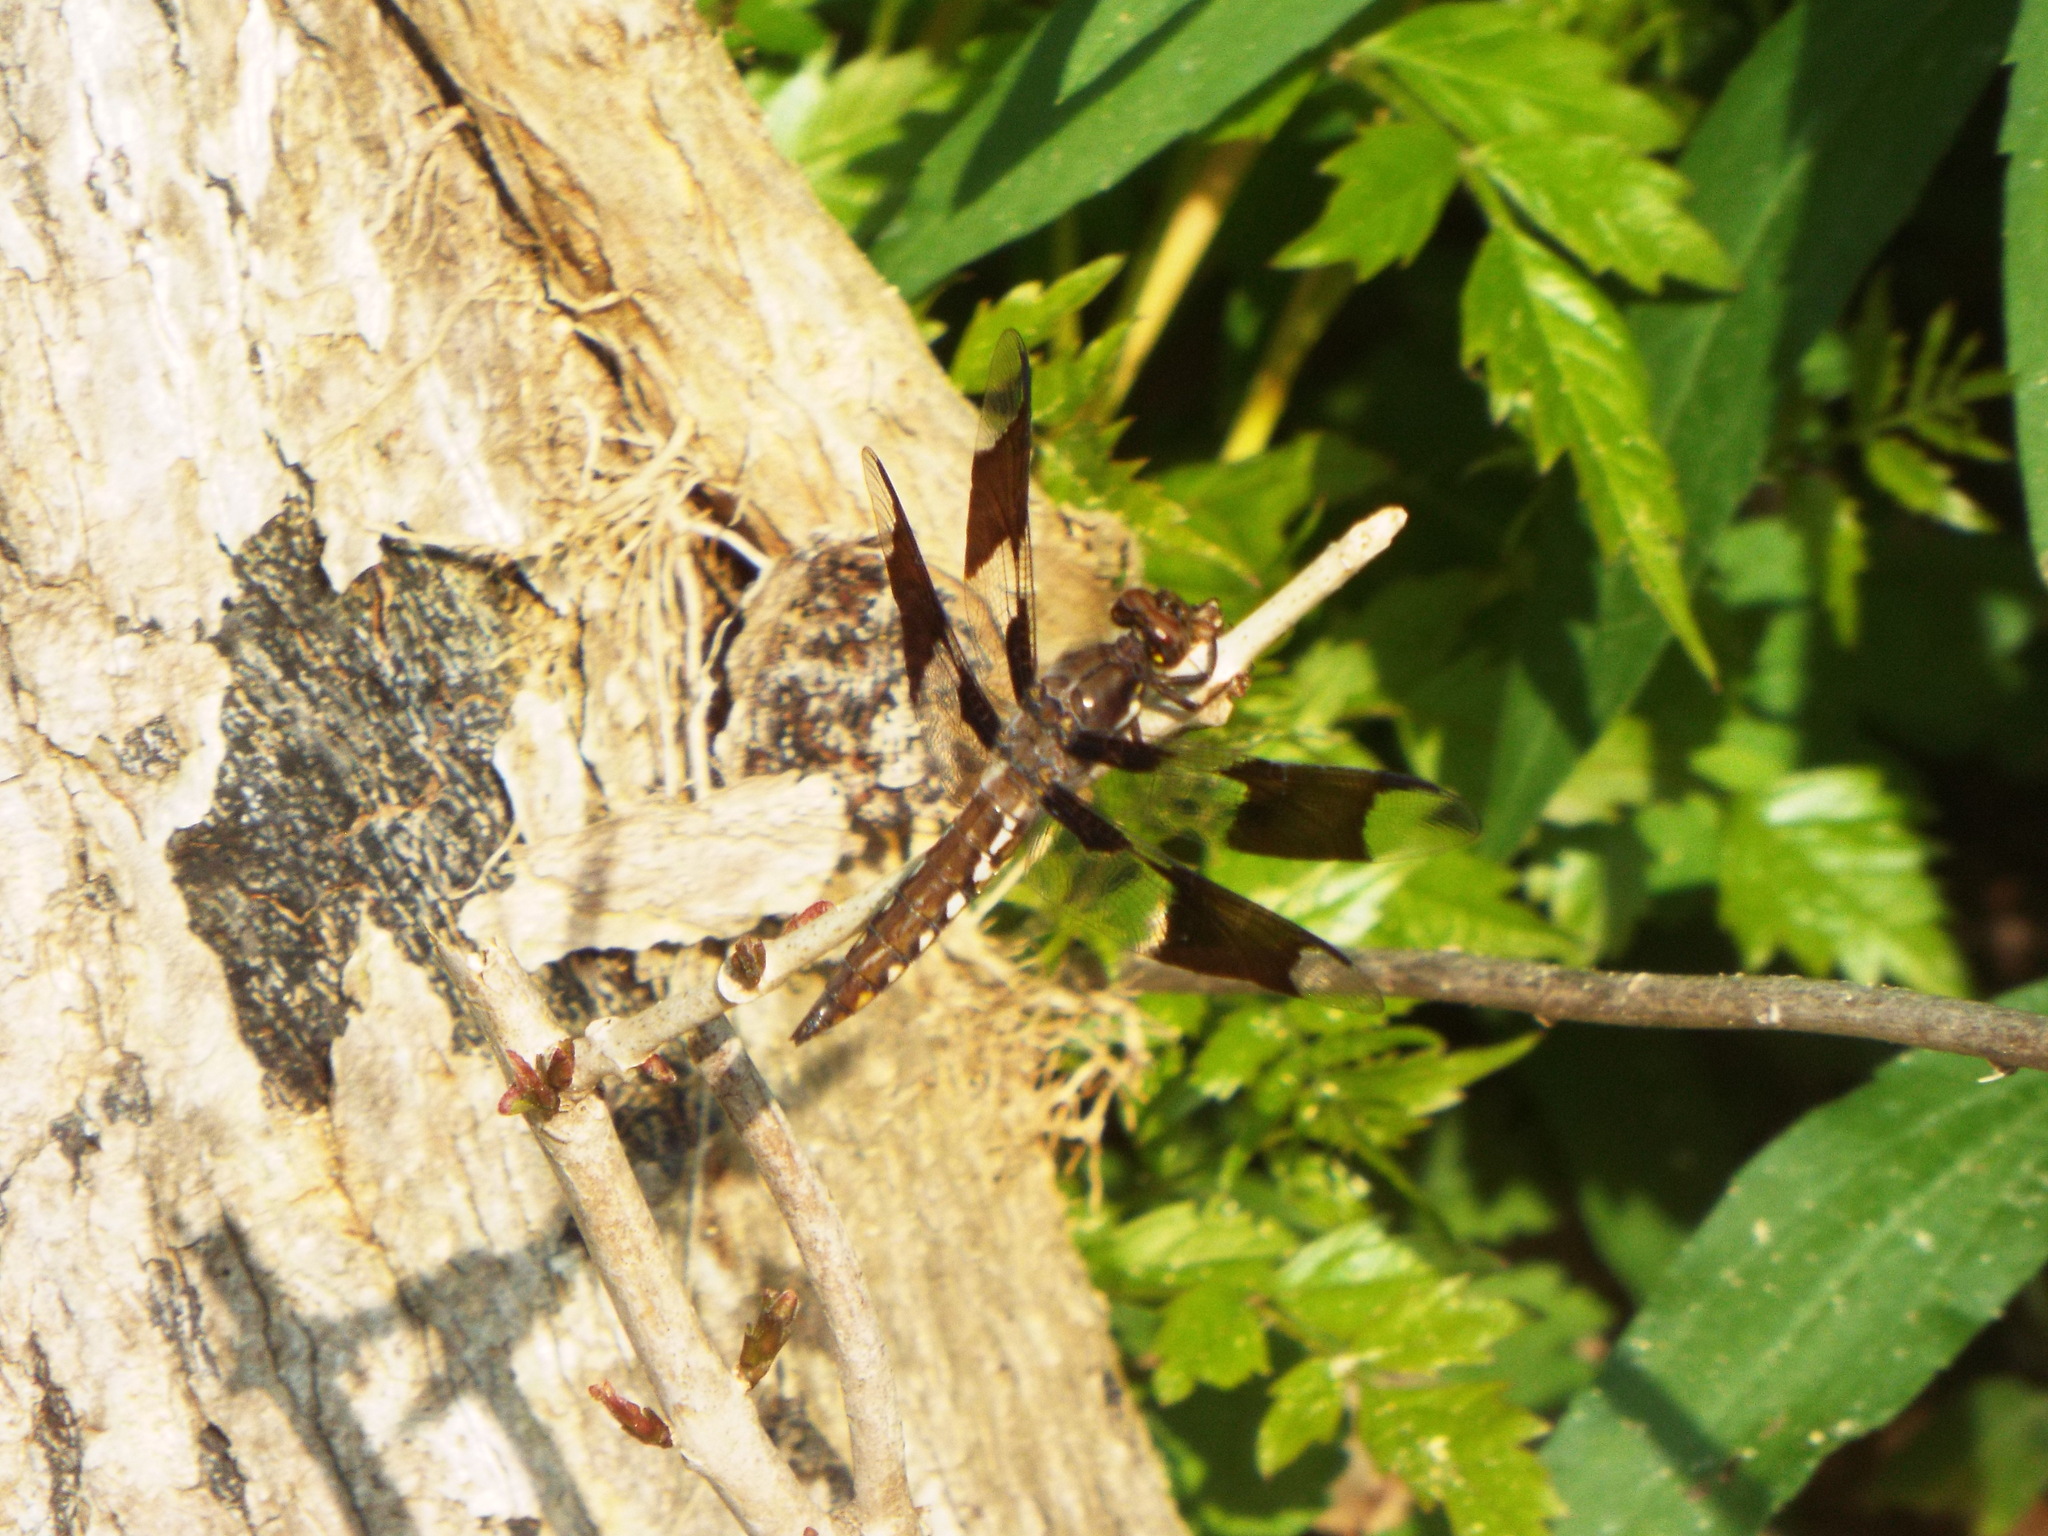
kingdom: Animalia
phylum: Arthropoda
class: Insecta
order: Odonata
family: Libellulidae
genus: Plathemis
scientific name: Plathemis lydia
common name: Common whitetail
